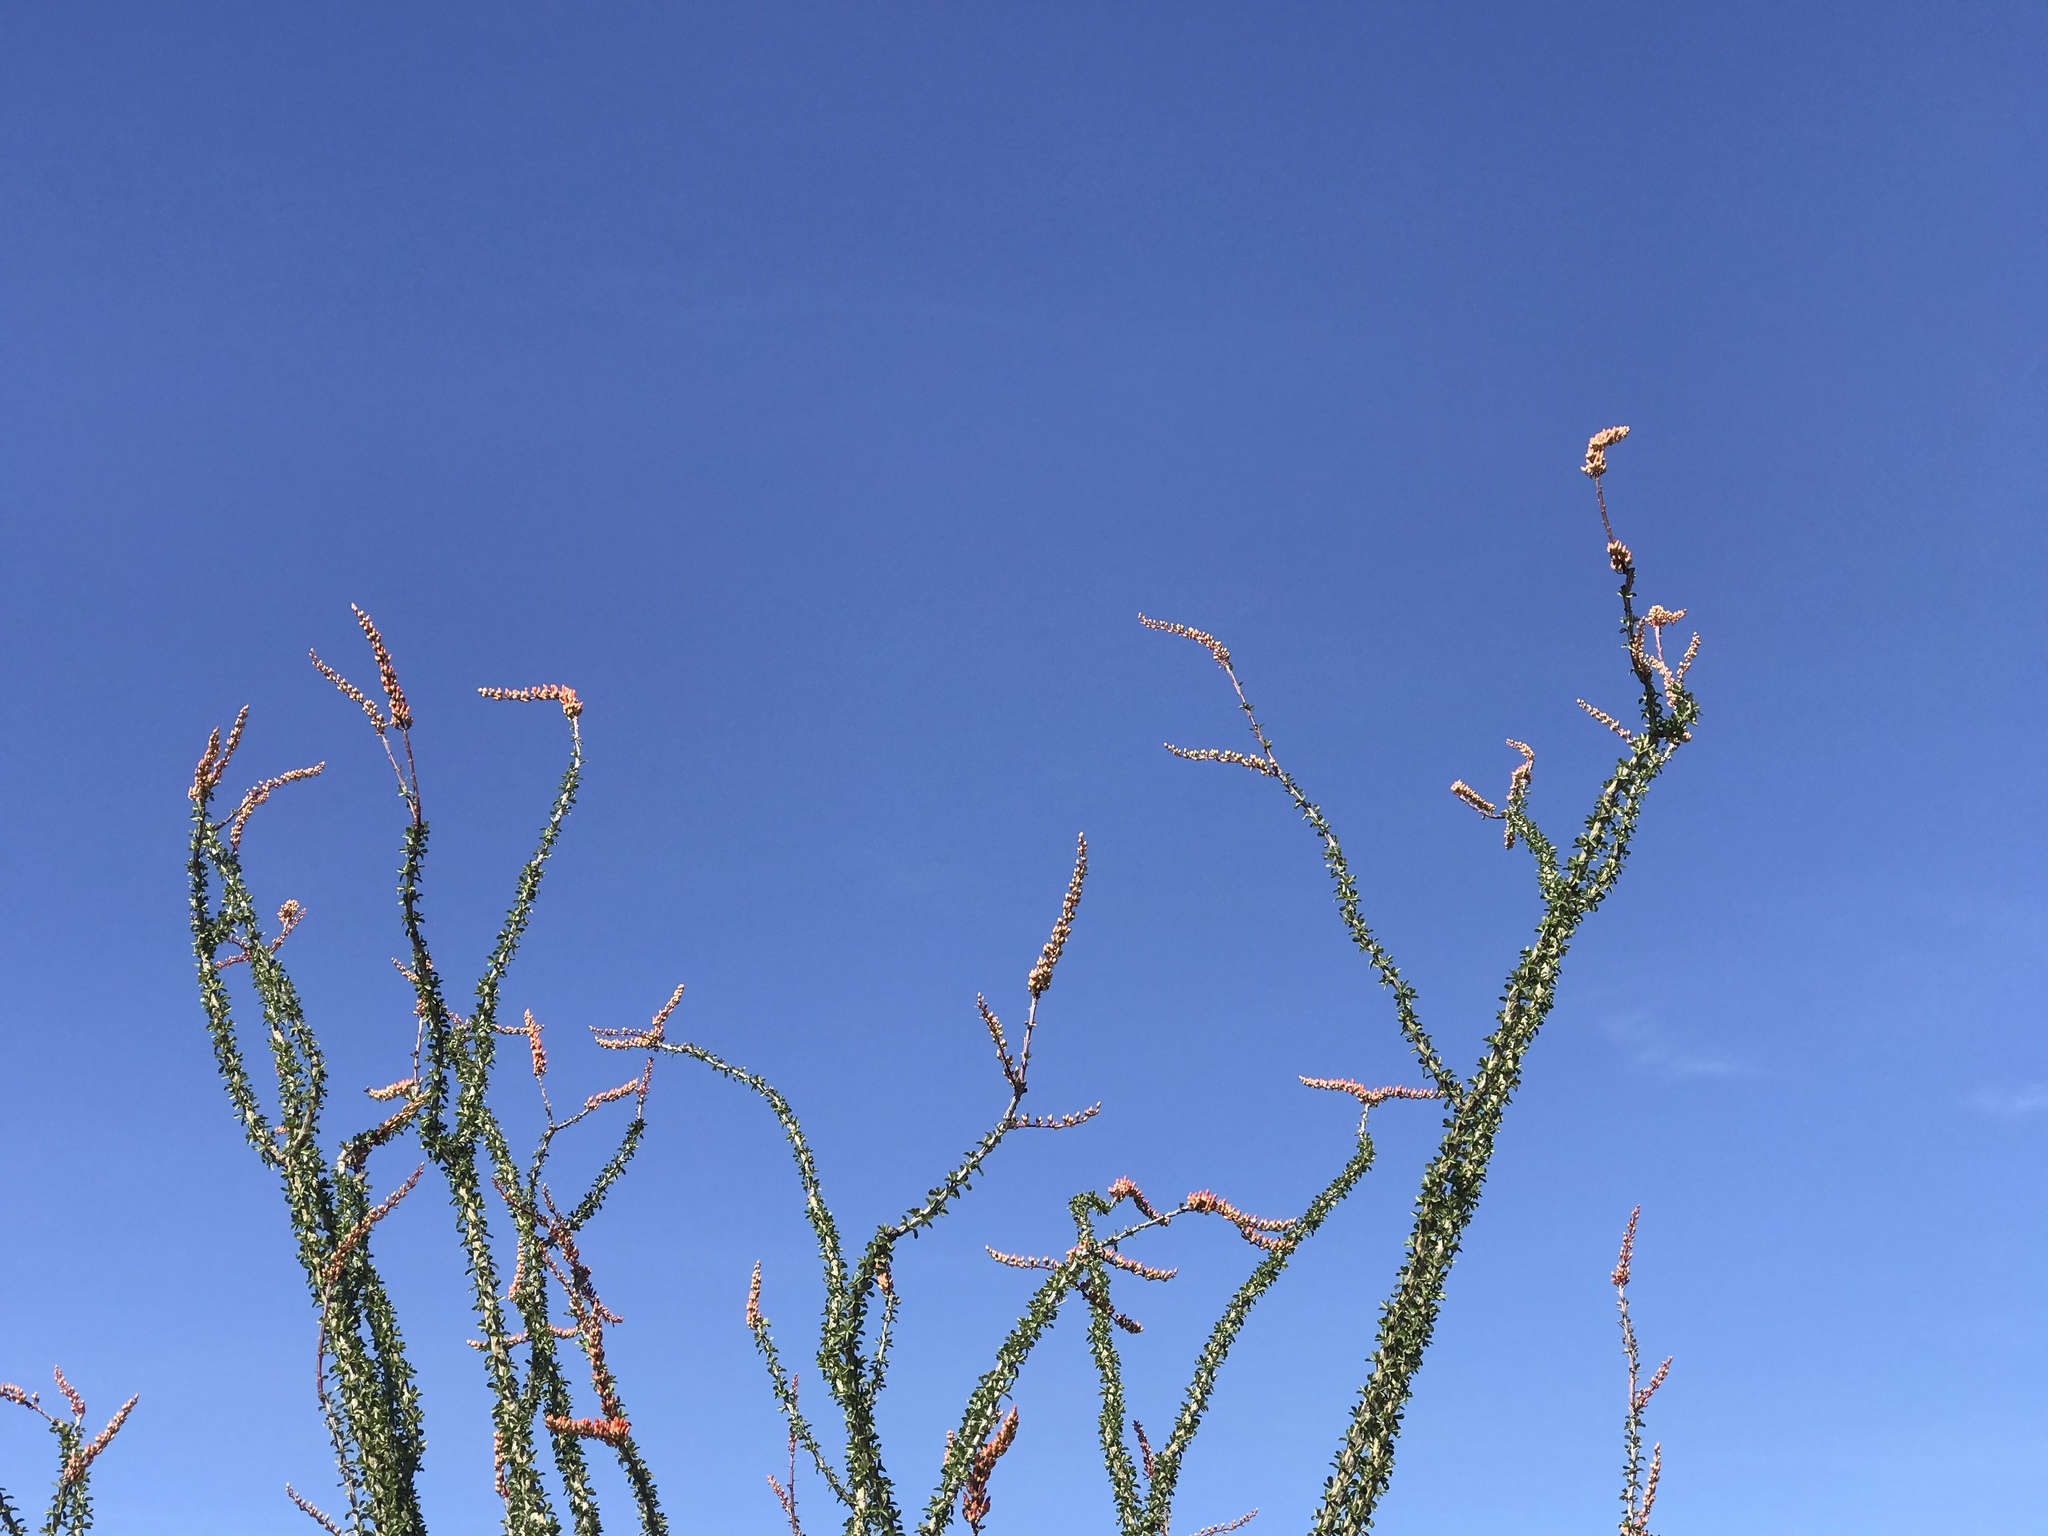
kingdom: Plantae
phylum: Tracheophyta
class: Magnoliopsida
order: Ericales
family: Fouquieriaceae
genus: Fouquieria
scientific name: Fouquieria splendens
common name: Vine-cactus
